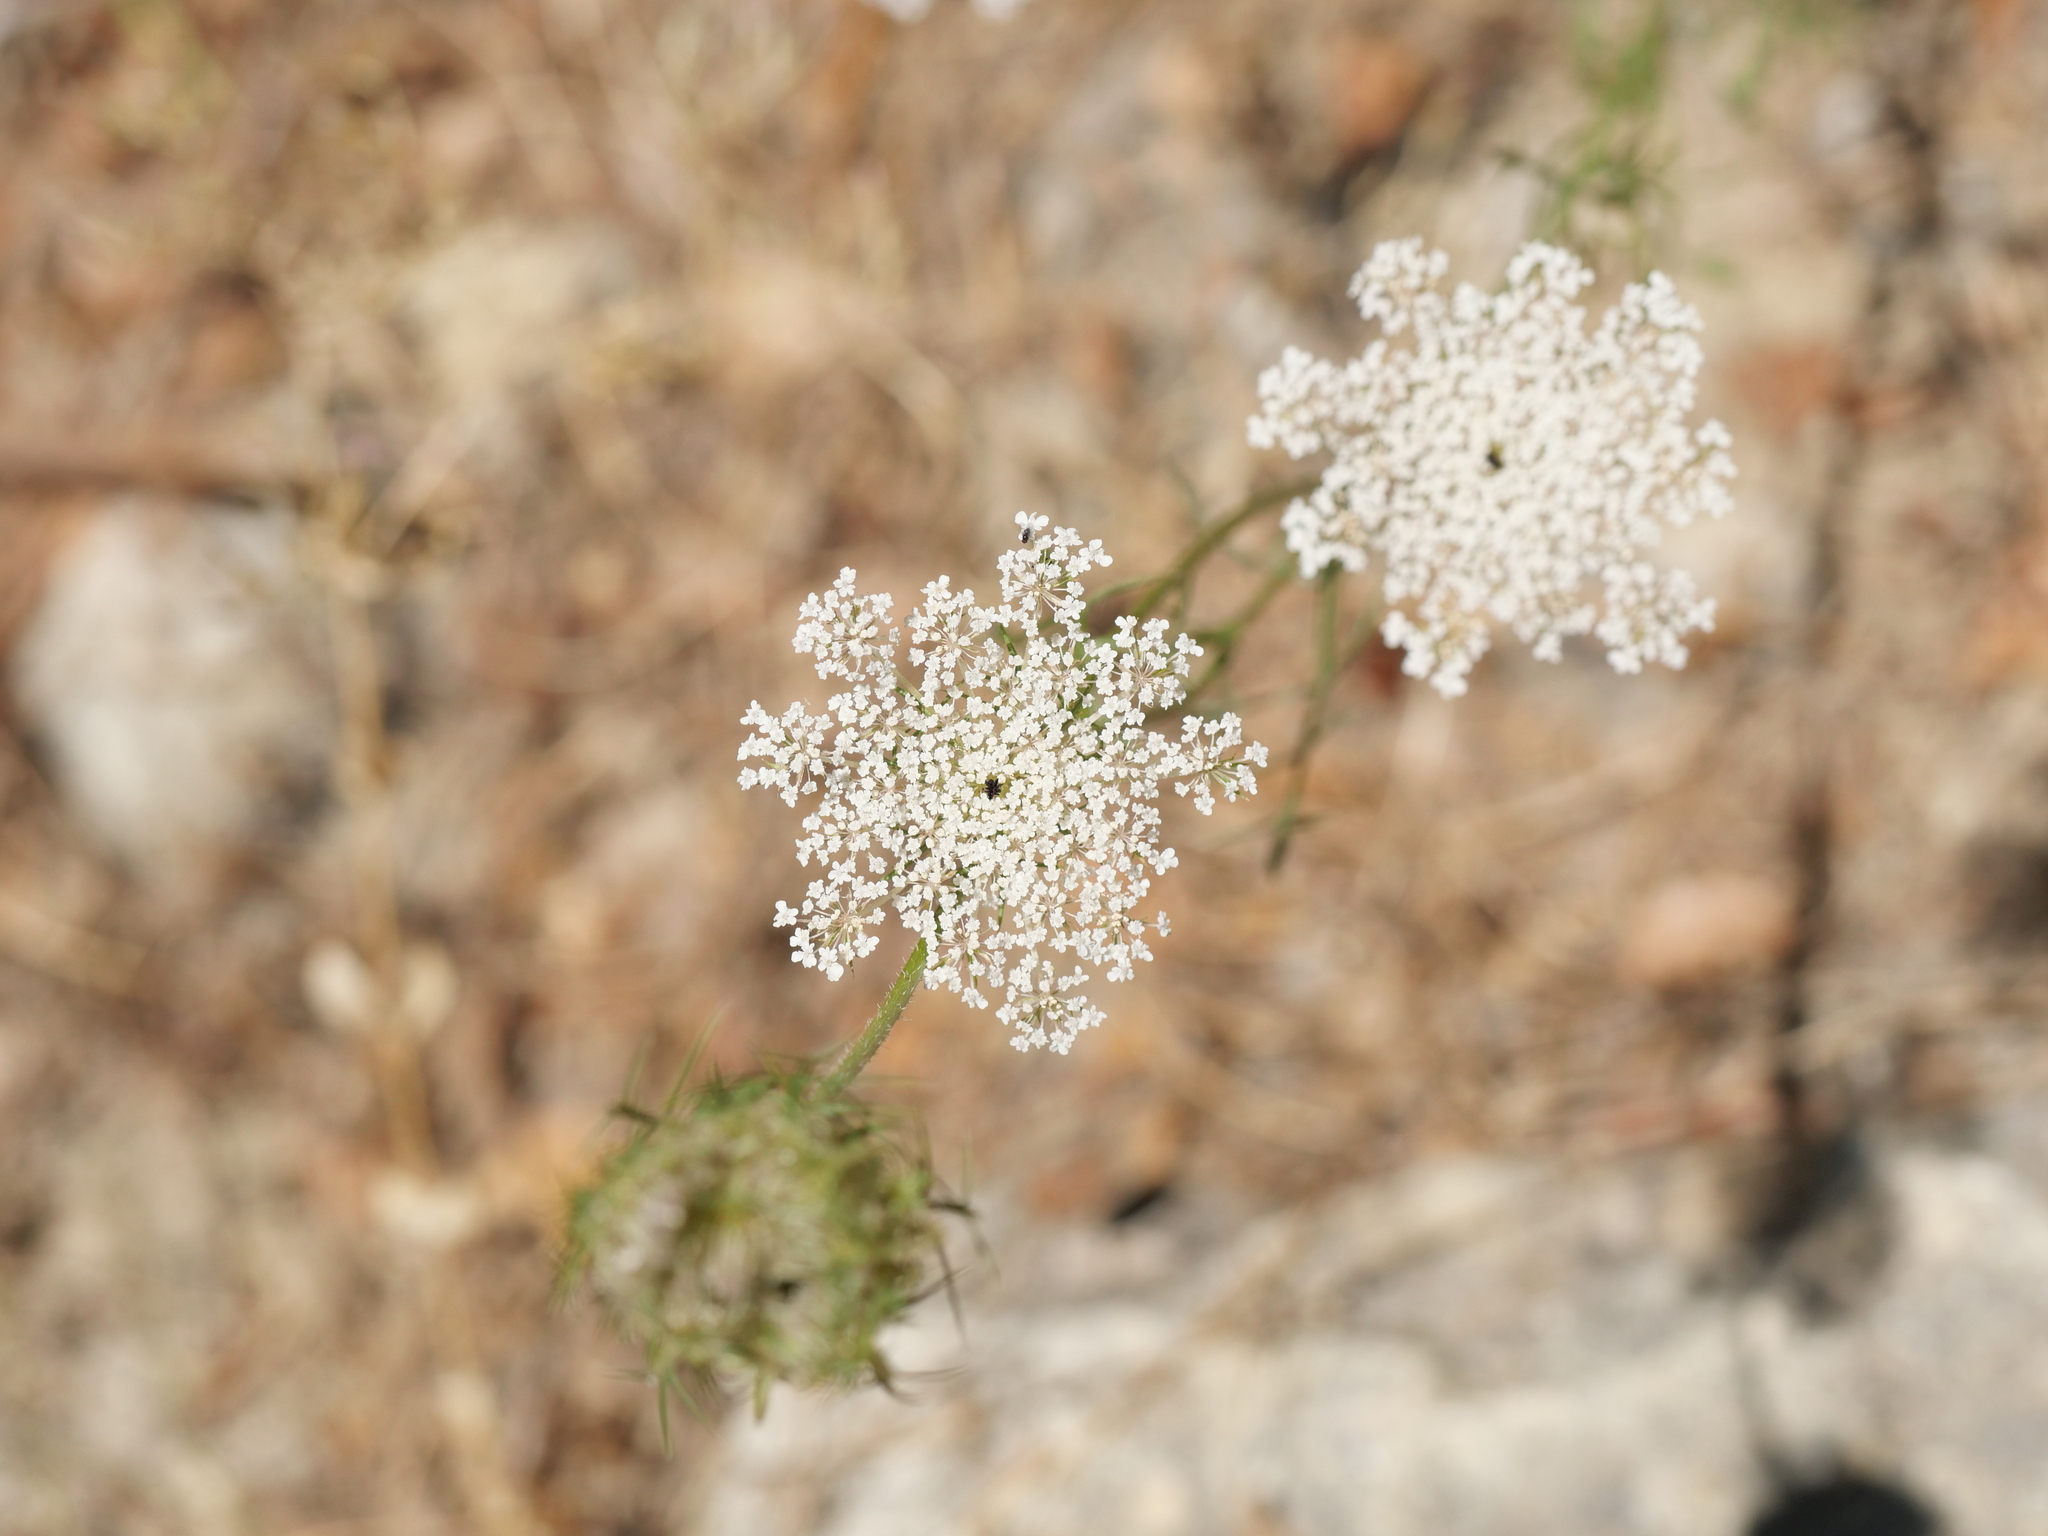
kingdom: Plantae
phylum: Tracheophyta
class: Magnoliopsida
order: Apiales
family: Apiaceae
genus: Daucus
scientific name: Daucus carota
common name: Wild carrot
